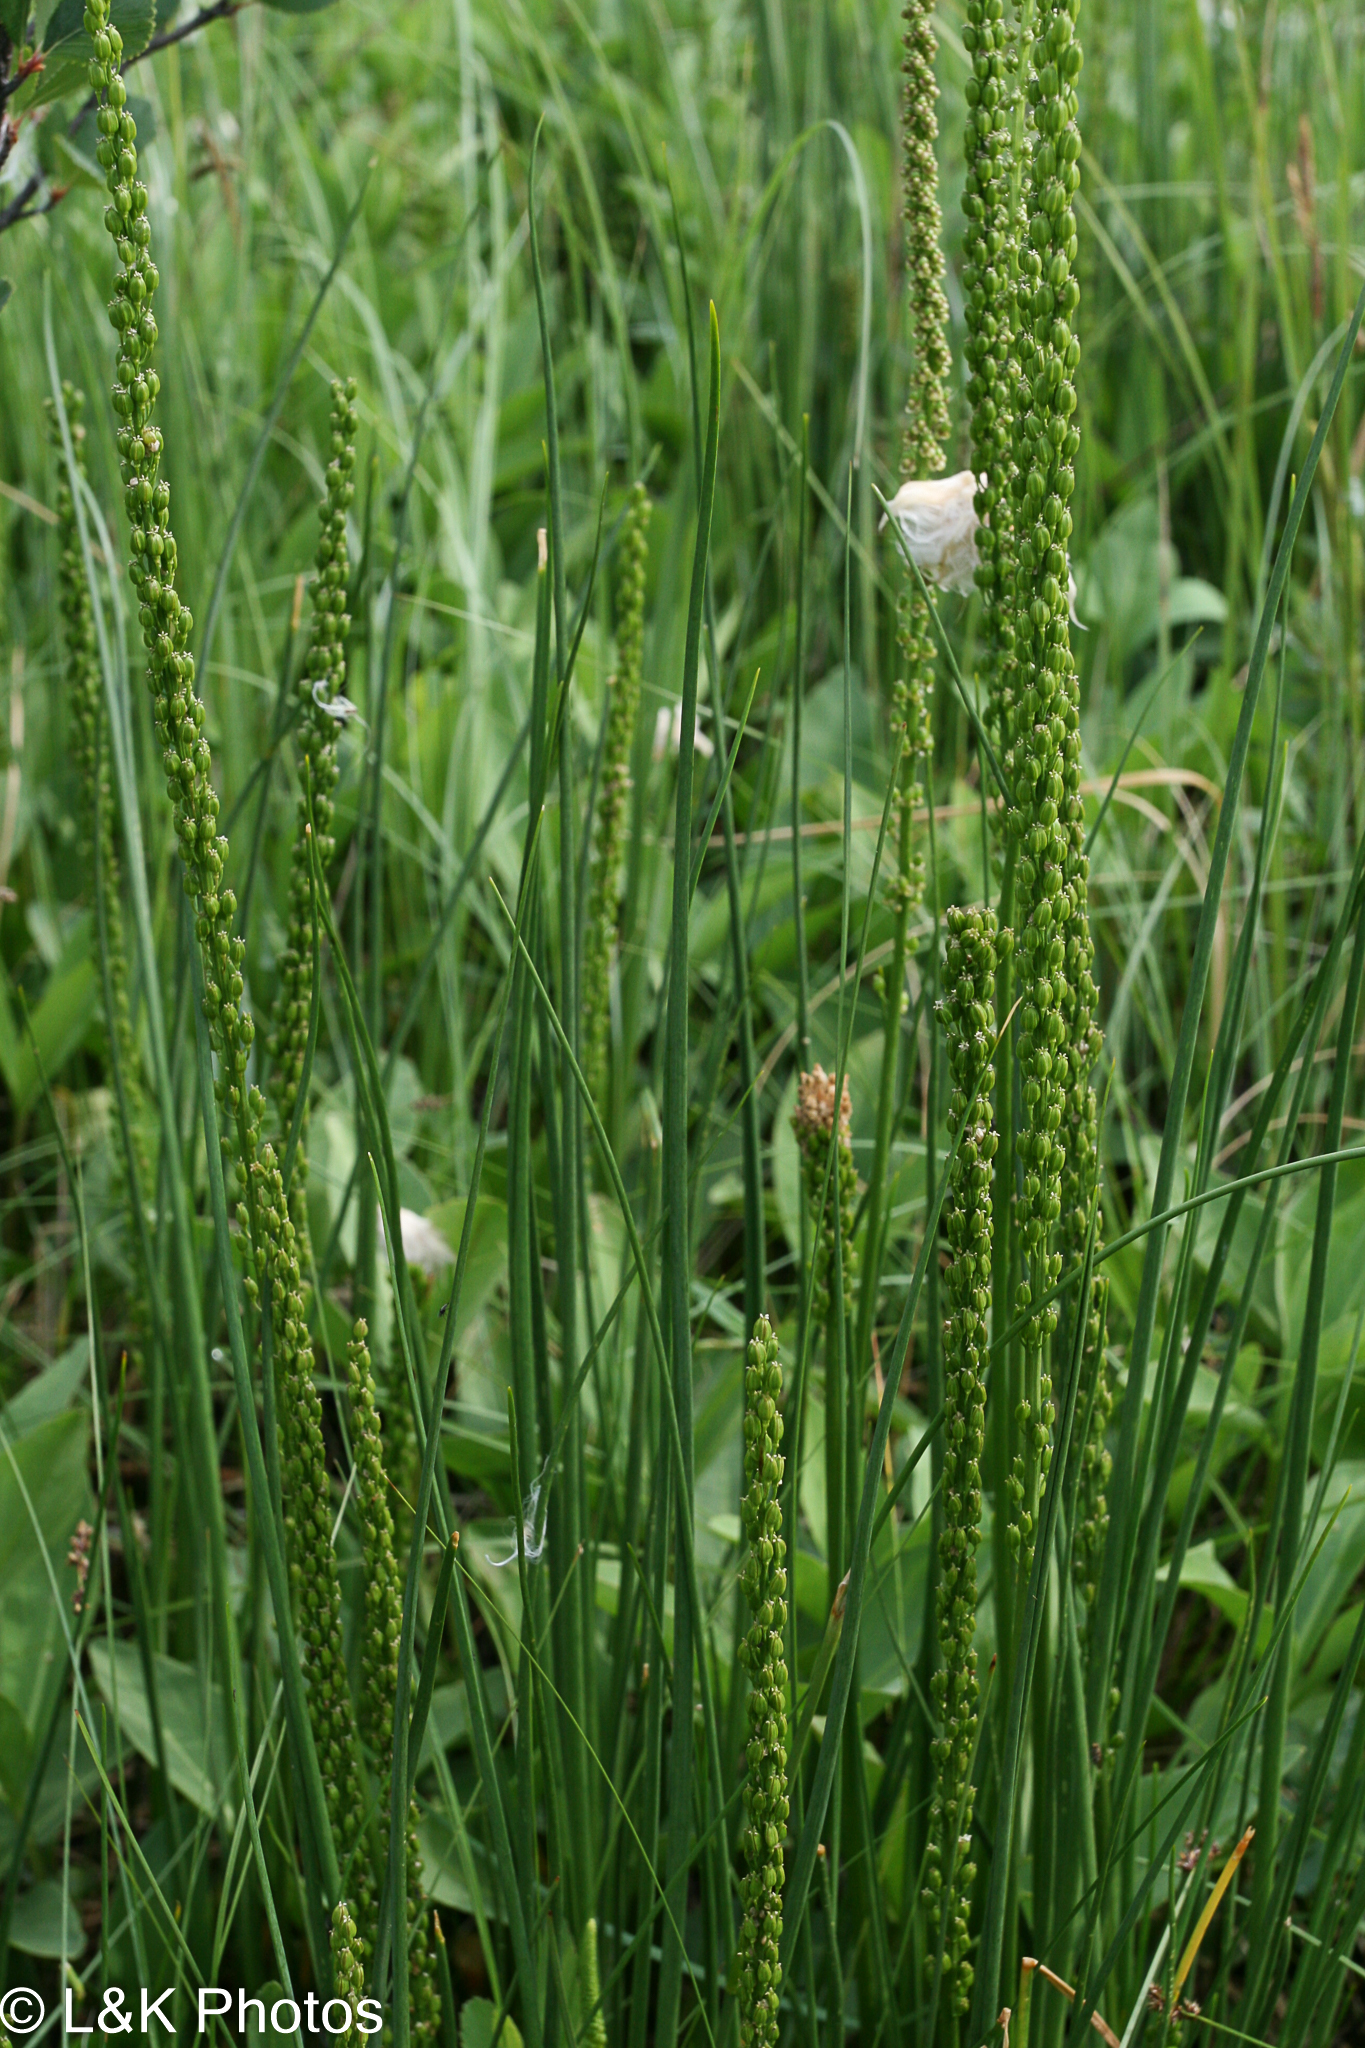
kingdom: Plantae
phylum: Tracheophyta
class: Liliopsida
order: Alismatales
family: Juncaginaceae
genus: Triglochin
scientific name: Triglochin maritima
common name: Sea arrowgrass
